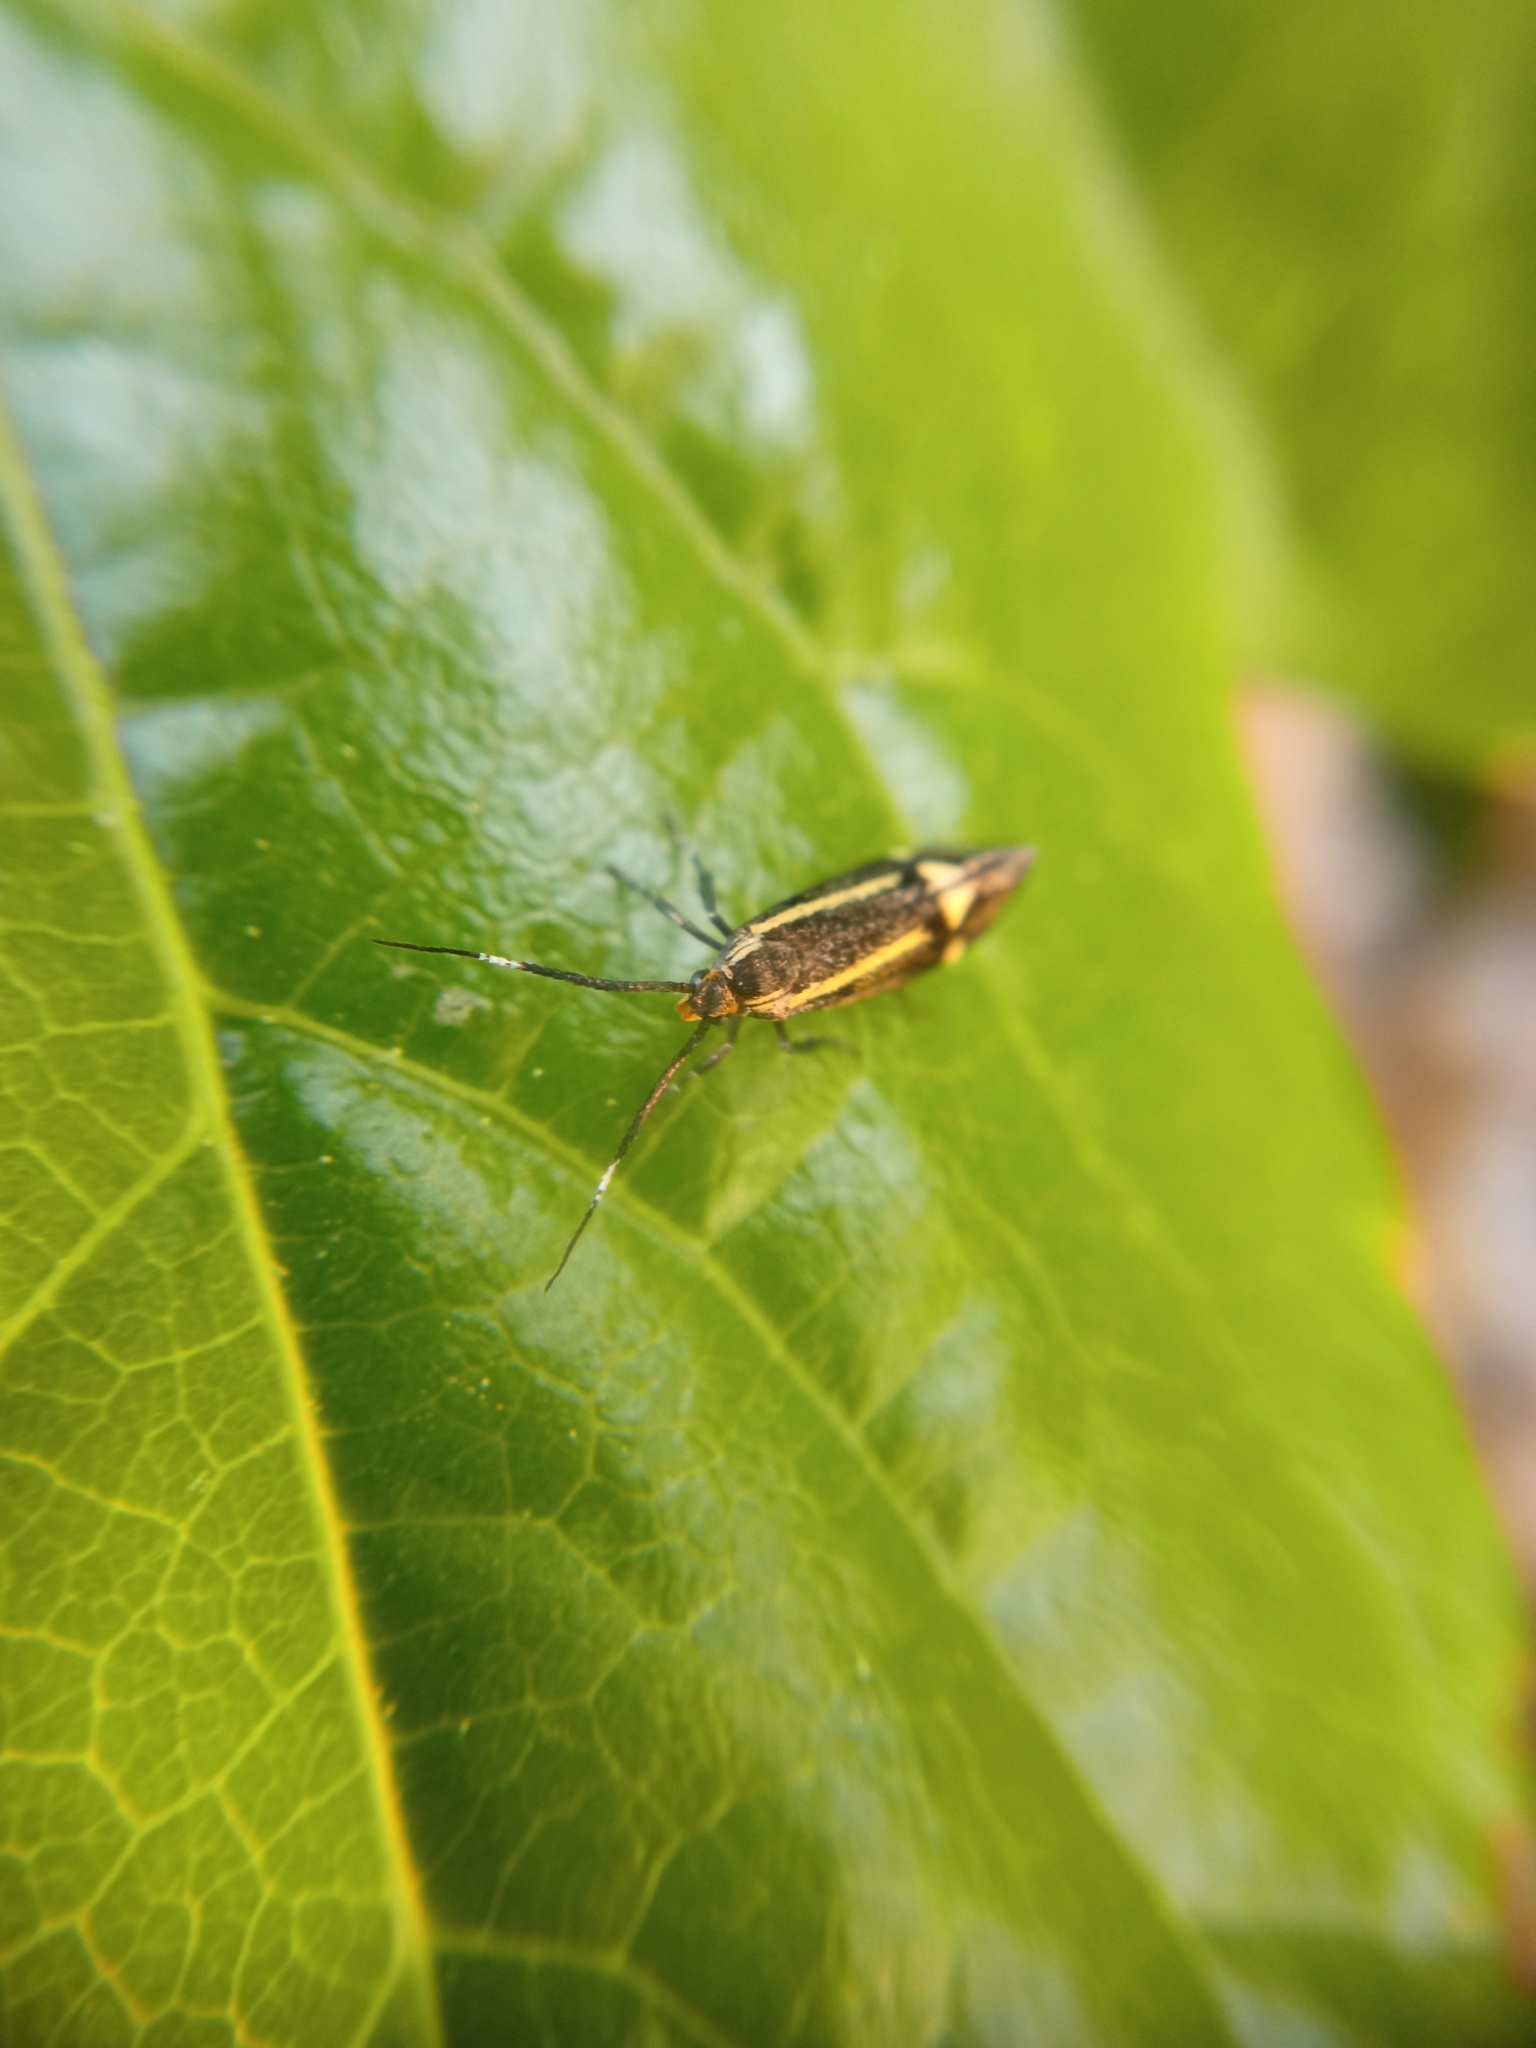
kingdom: Animalia
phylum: Arthropoda
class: Insecta
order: Lepidoptera
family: Oecophoridae
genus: Dafa
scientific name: Dafa Esperia sulphurella
